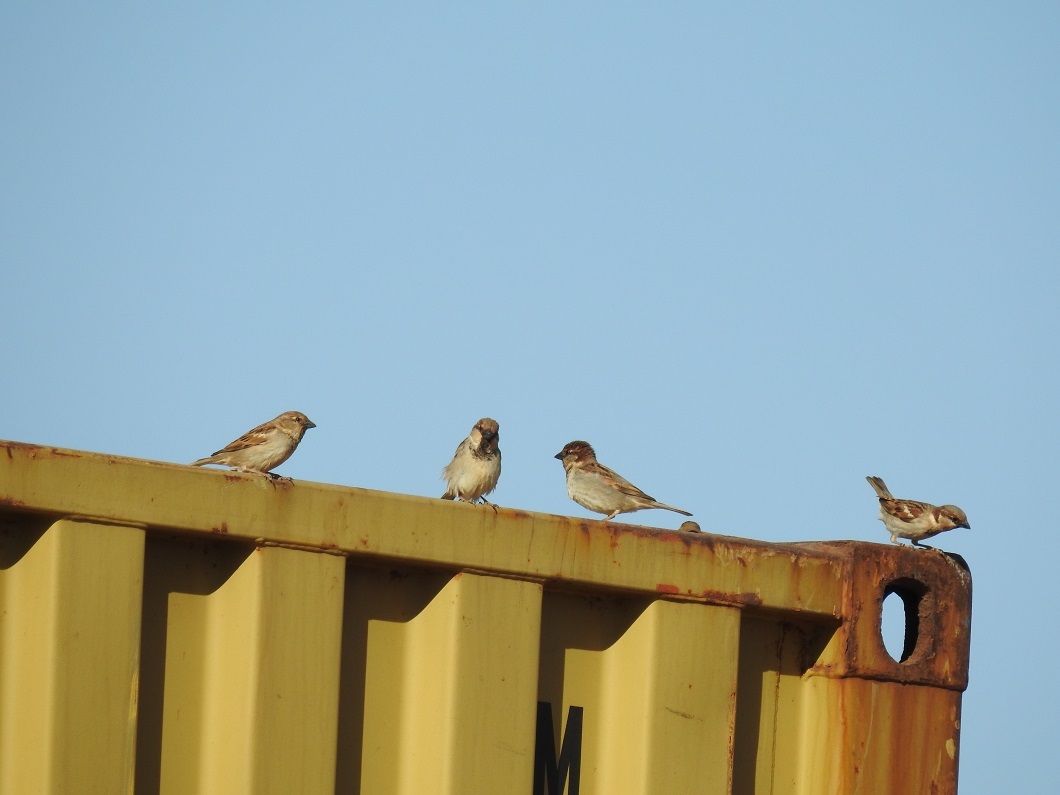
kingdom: Animalia
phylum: Chordata
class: Aves
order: Passeriformes
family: Passeridae
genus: Passer
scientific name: Passer domesticus
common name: House sparrow
